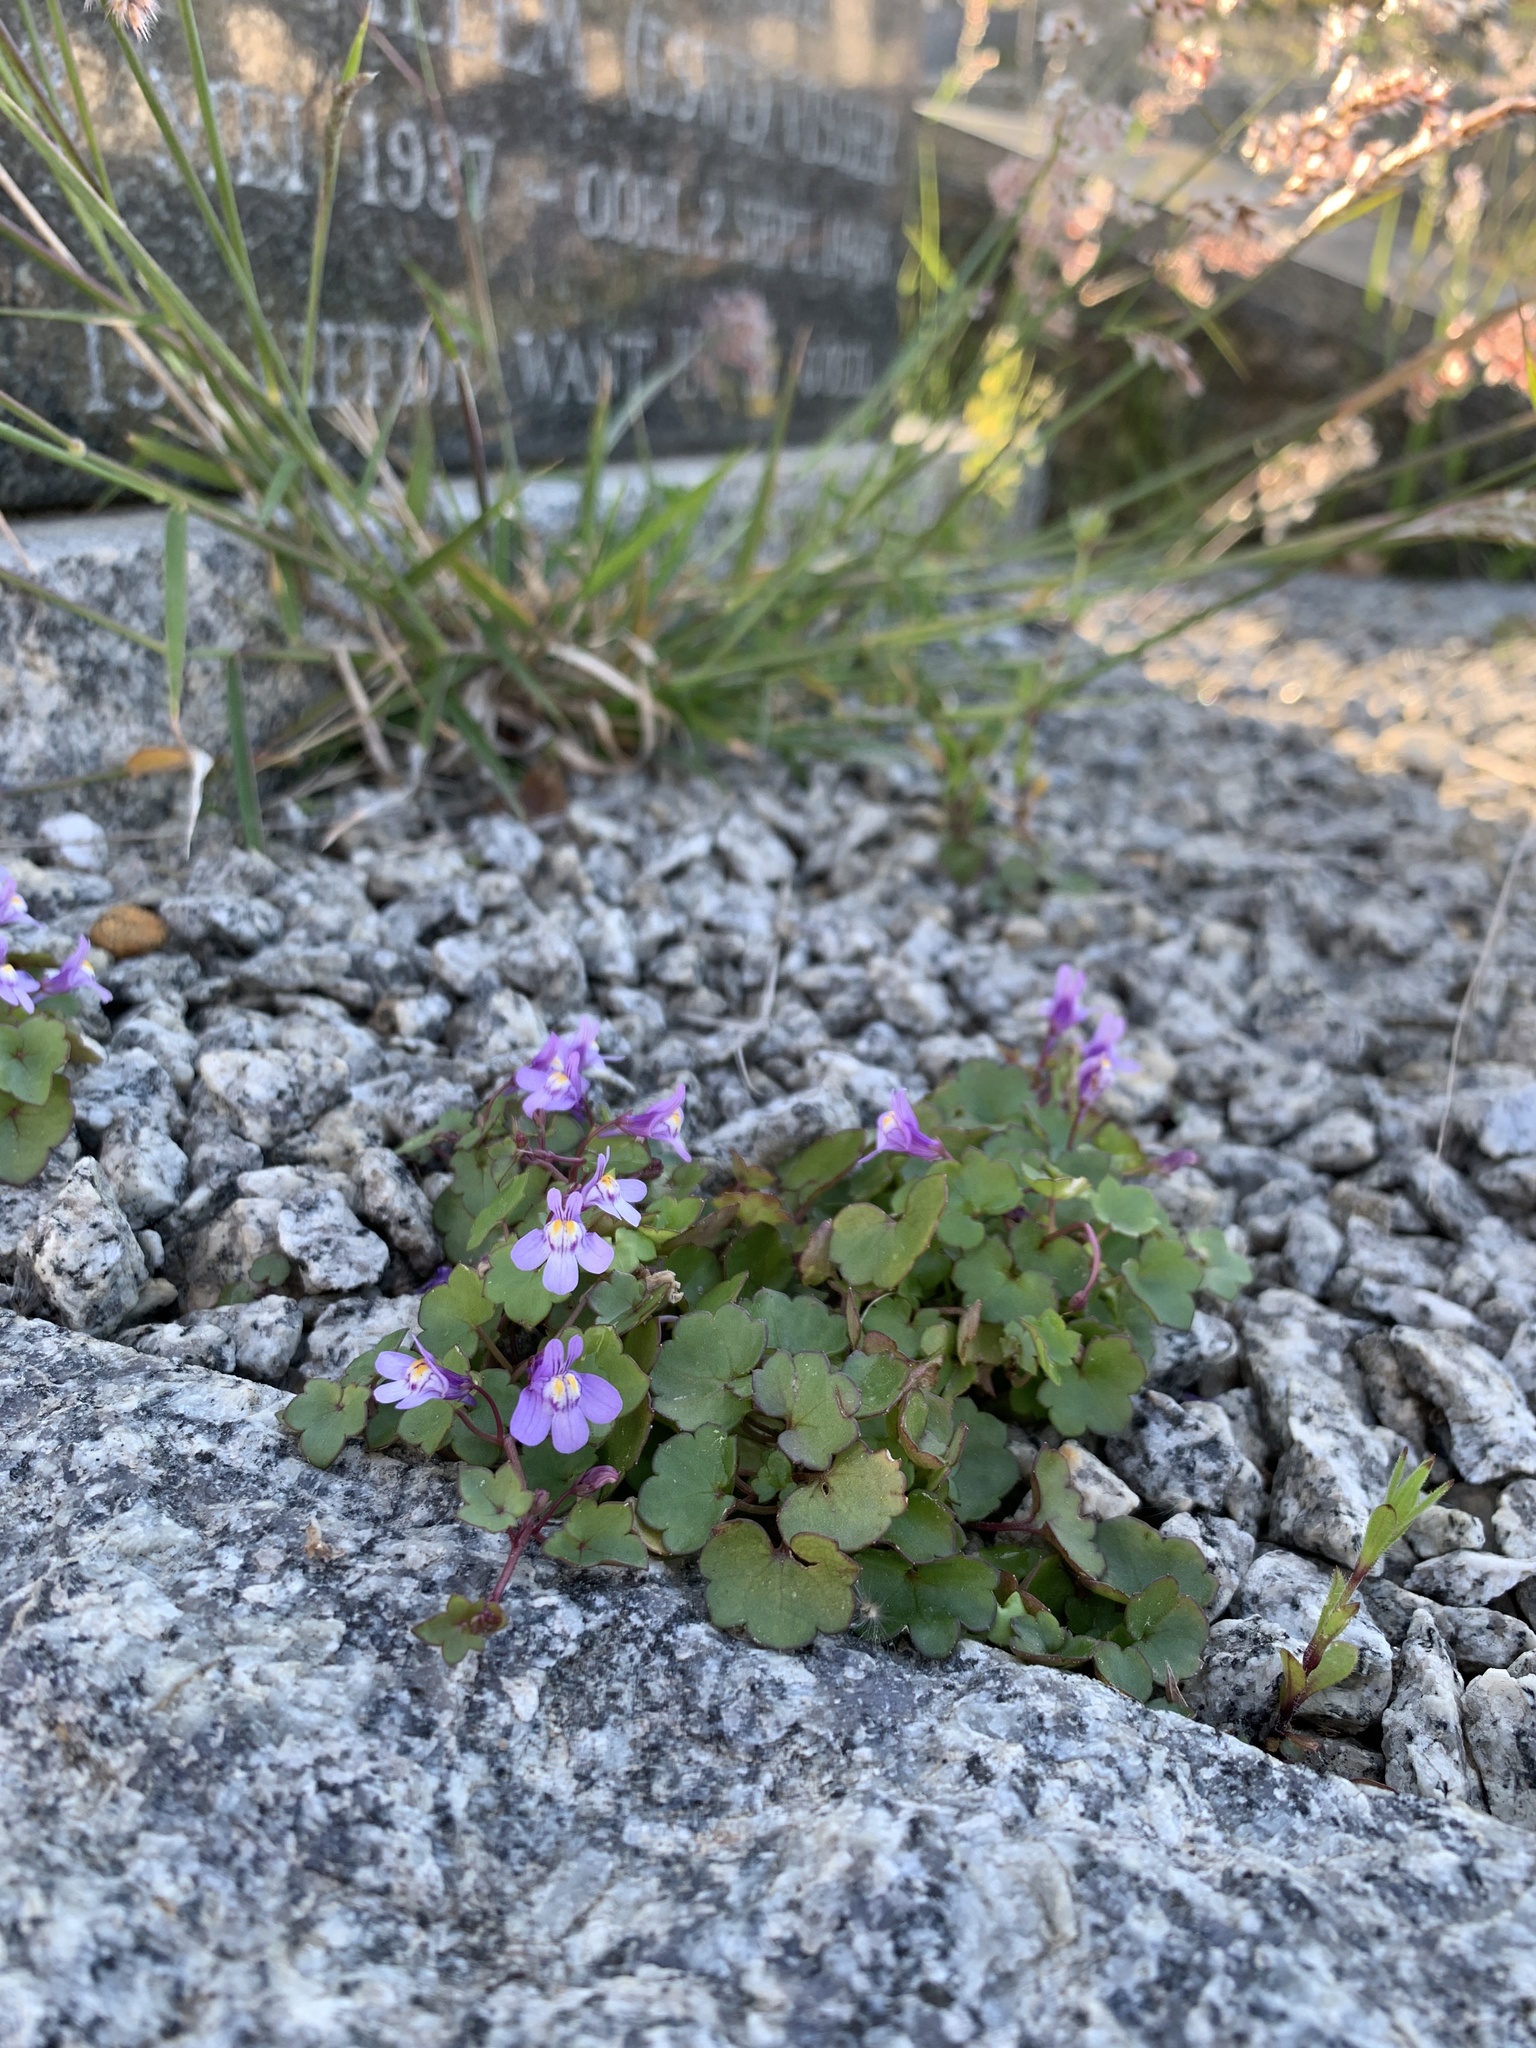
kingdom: Plantae
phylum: Tracheophyta
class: Magnoliopsida
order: Lamiales
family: Plantaginaceae
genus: Cymbalaria
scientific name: Cymbalaria muralis
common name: Ivy-leaved toadflax
